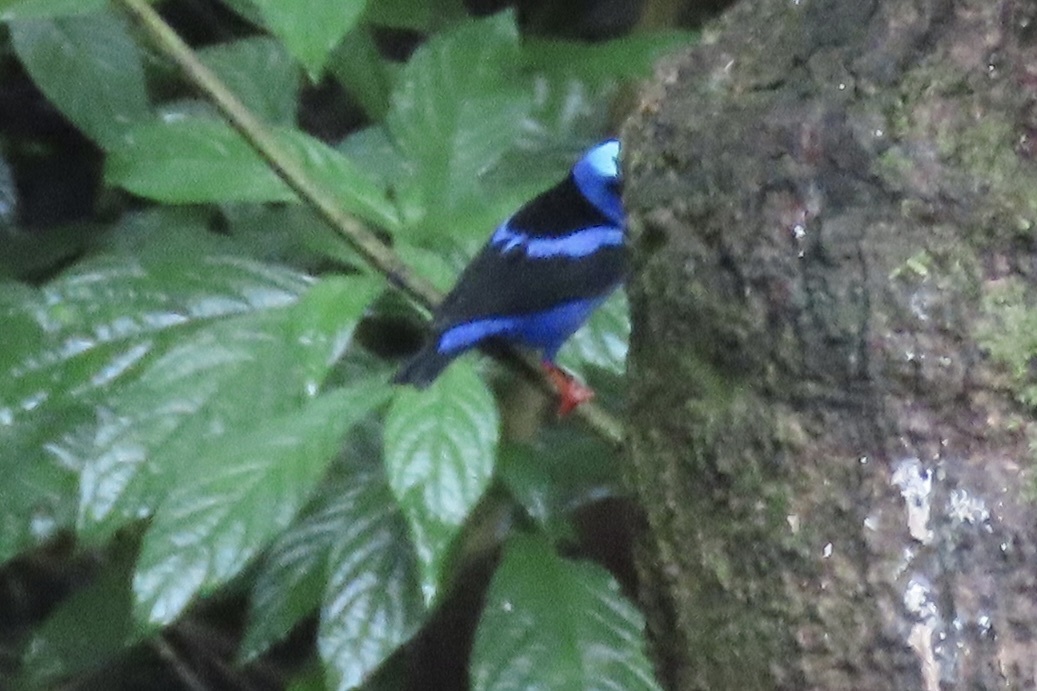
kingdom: Animalia
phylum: Chordata
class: Aves
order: Passeriformes
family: Thraupidae
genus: Cyanerpes
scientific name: Cyanerpes cyaneus
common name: Red-legged honeycreeper
